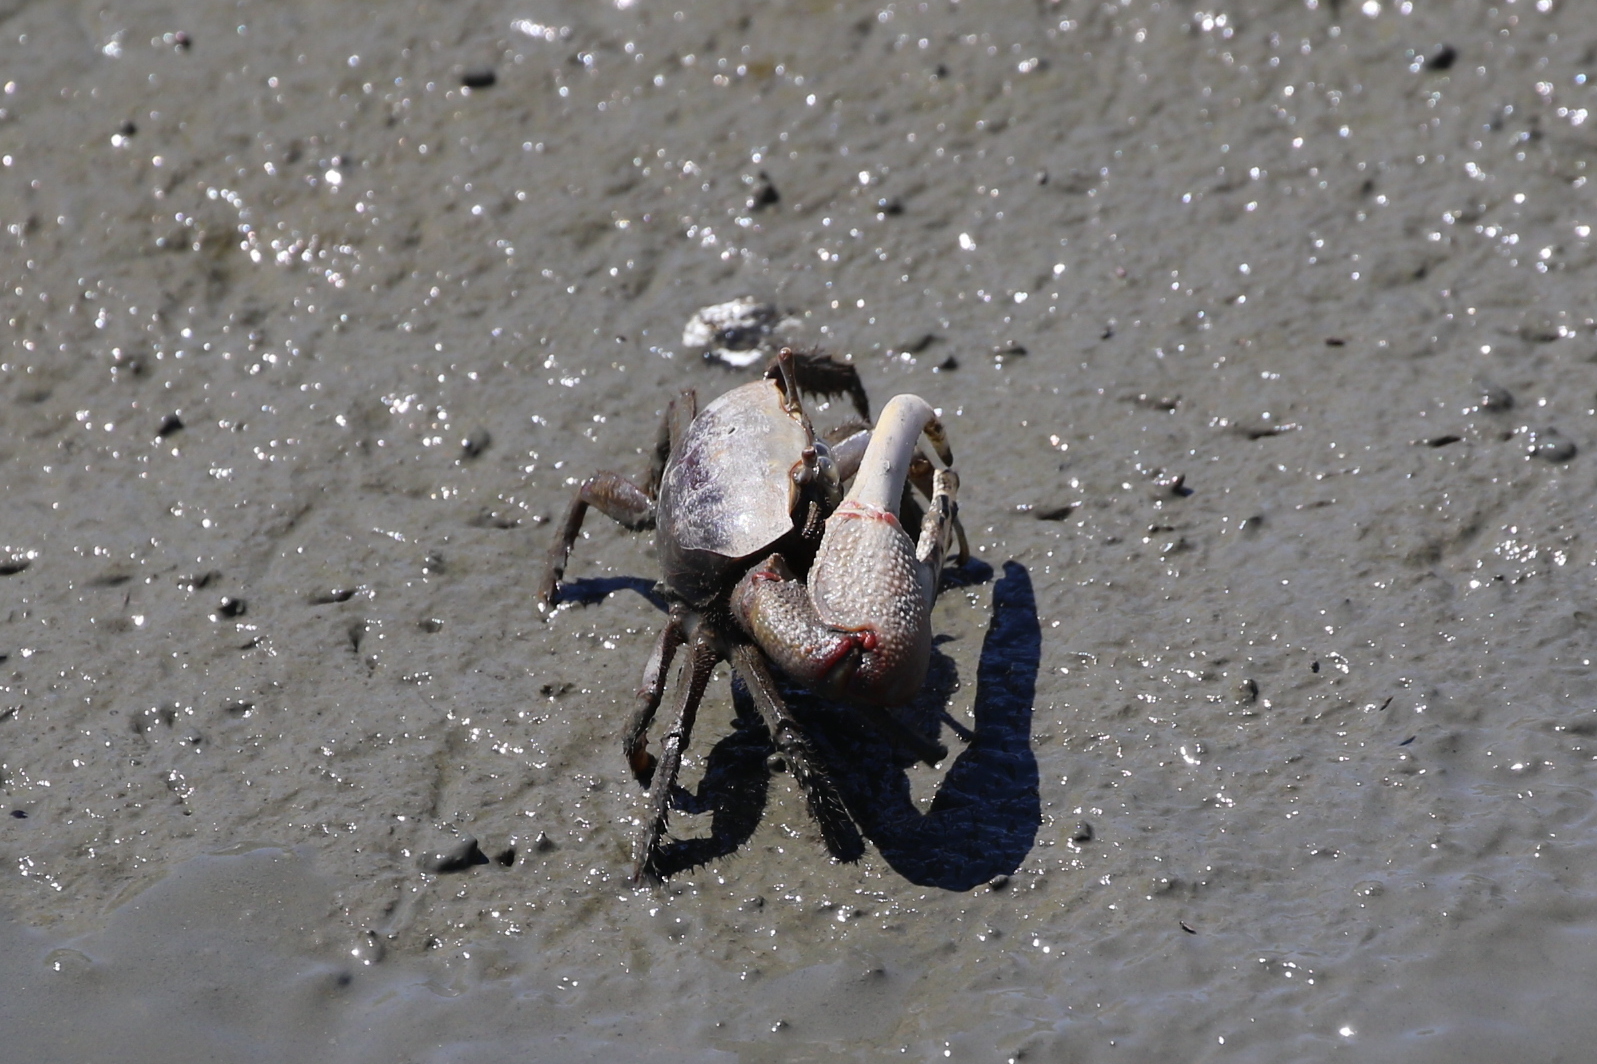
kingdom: Animalia
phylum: Arthropoda
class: Malacostraca
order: Decapoda
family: Ocypodidae
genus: Minuca
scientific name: Minuca minax
